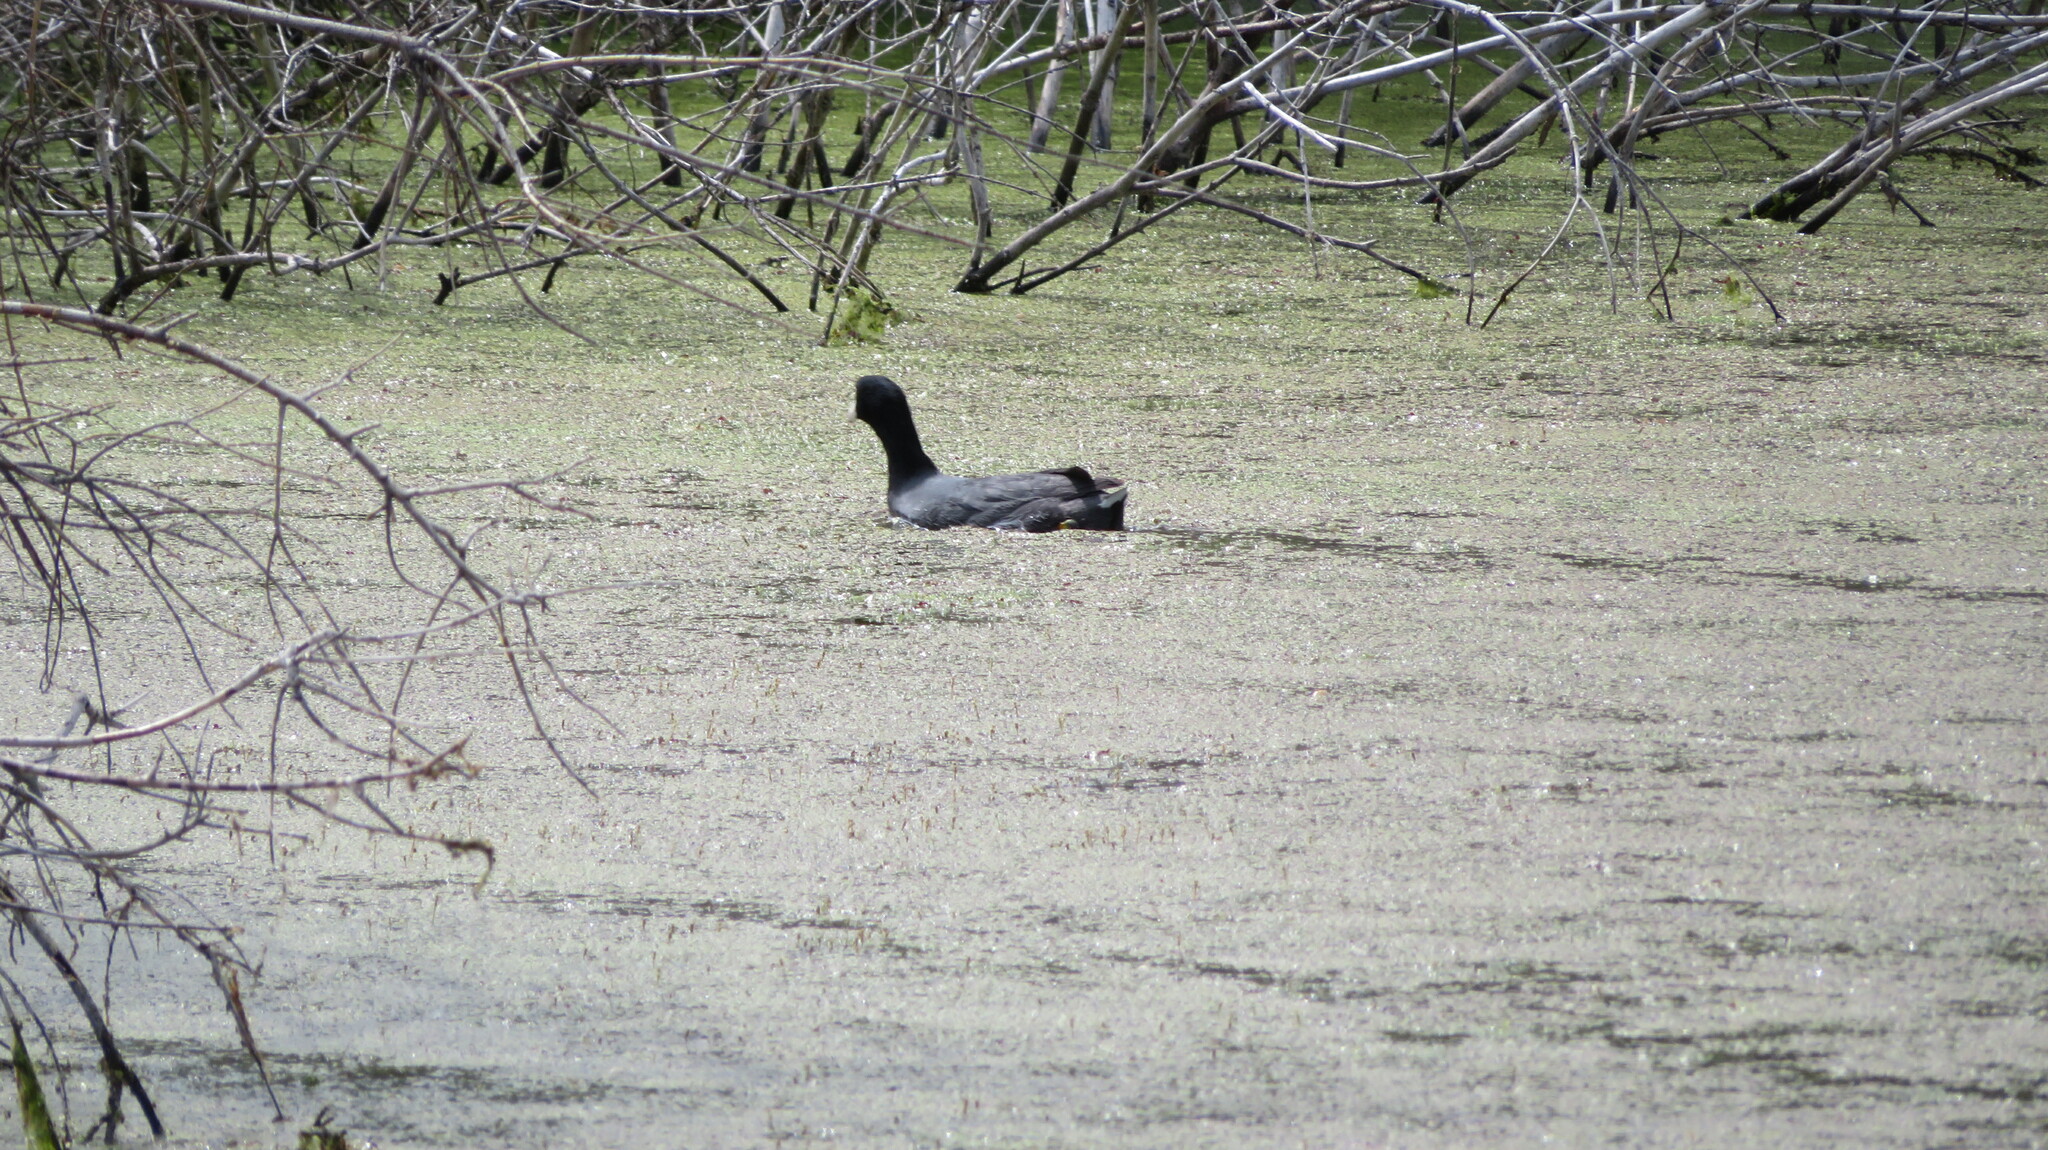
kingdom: Animalia
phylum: Chordata
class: Aves
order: Gruiformes
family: Rallidae
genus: Fulica
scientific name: Fulica americana
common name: American coot
